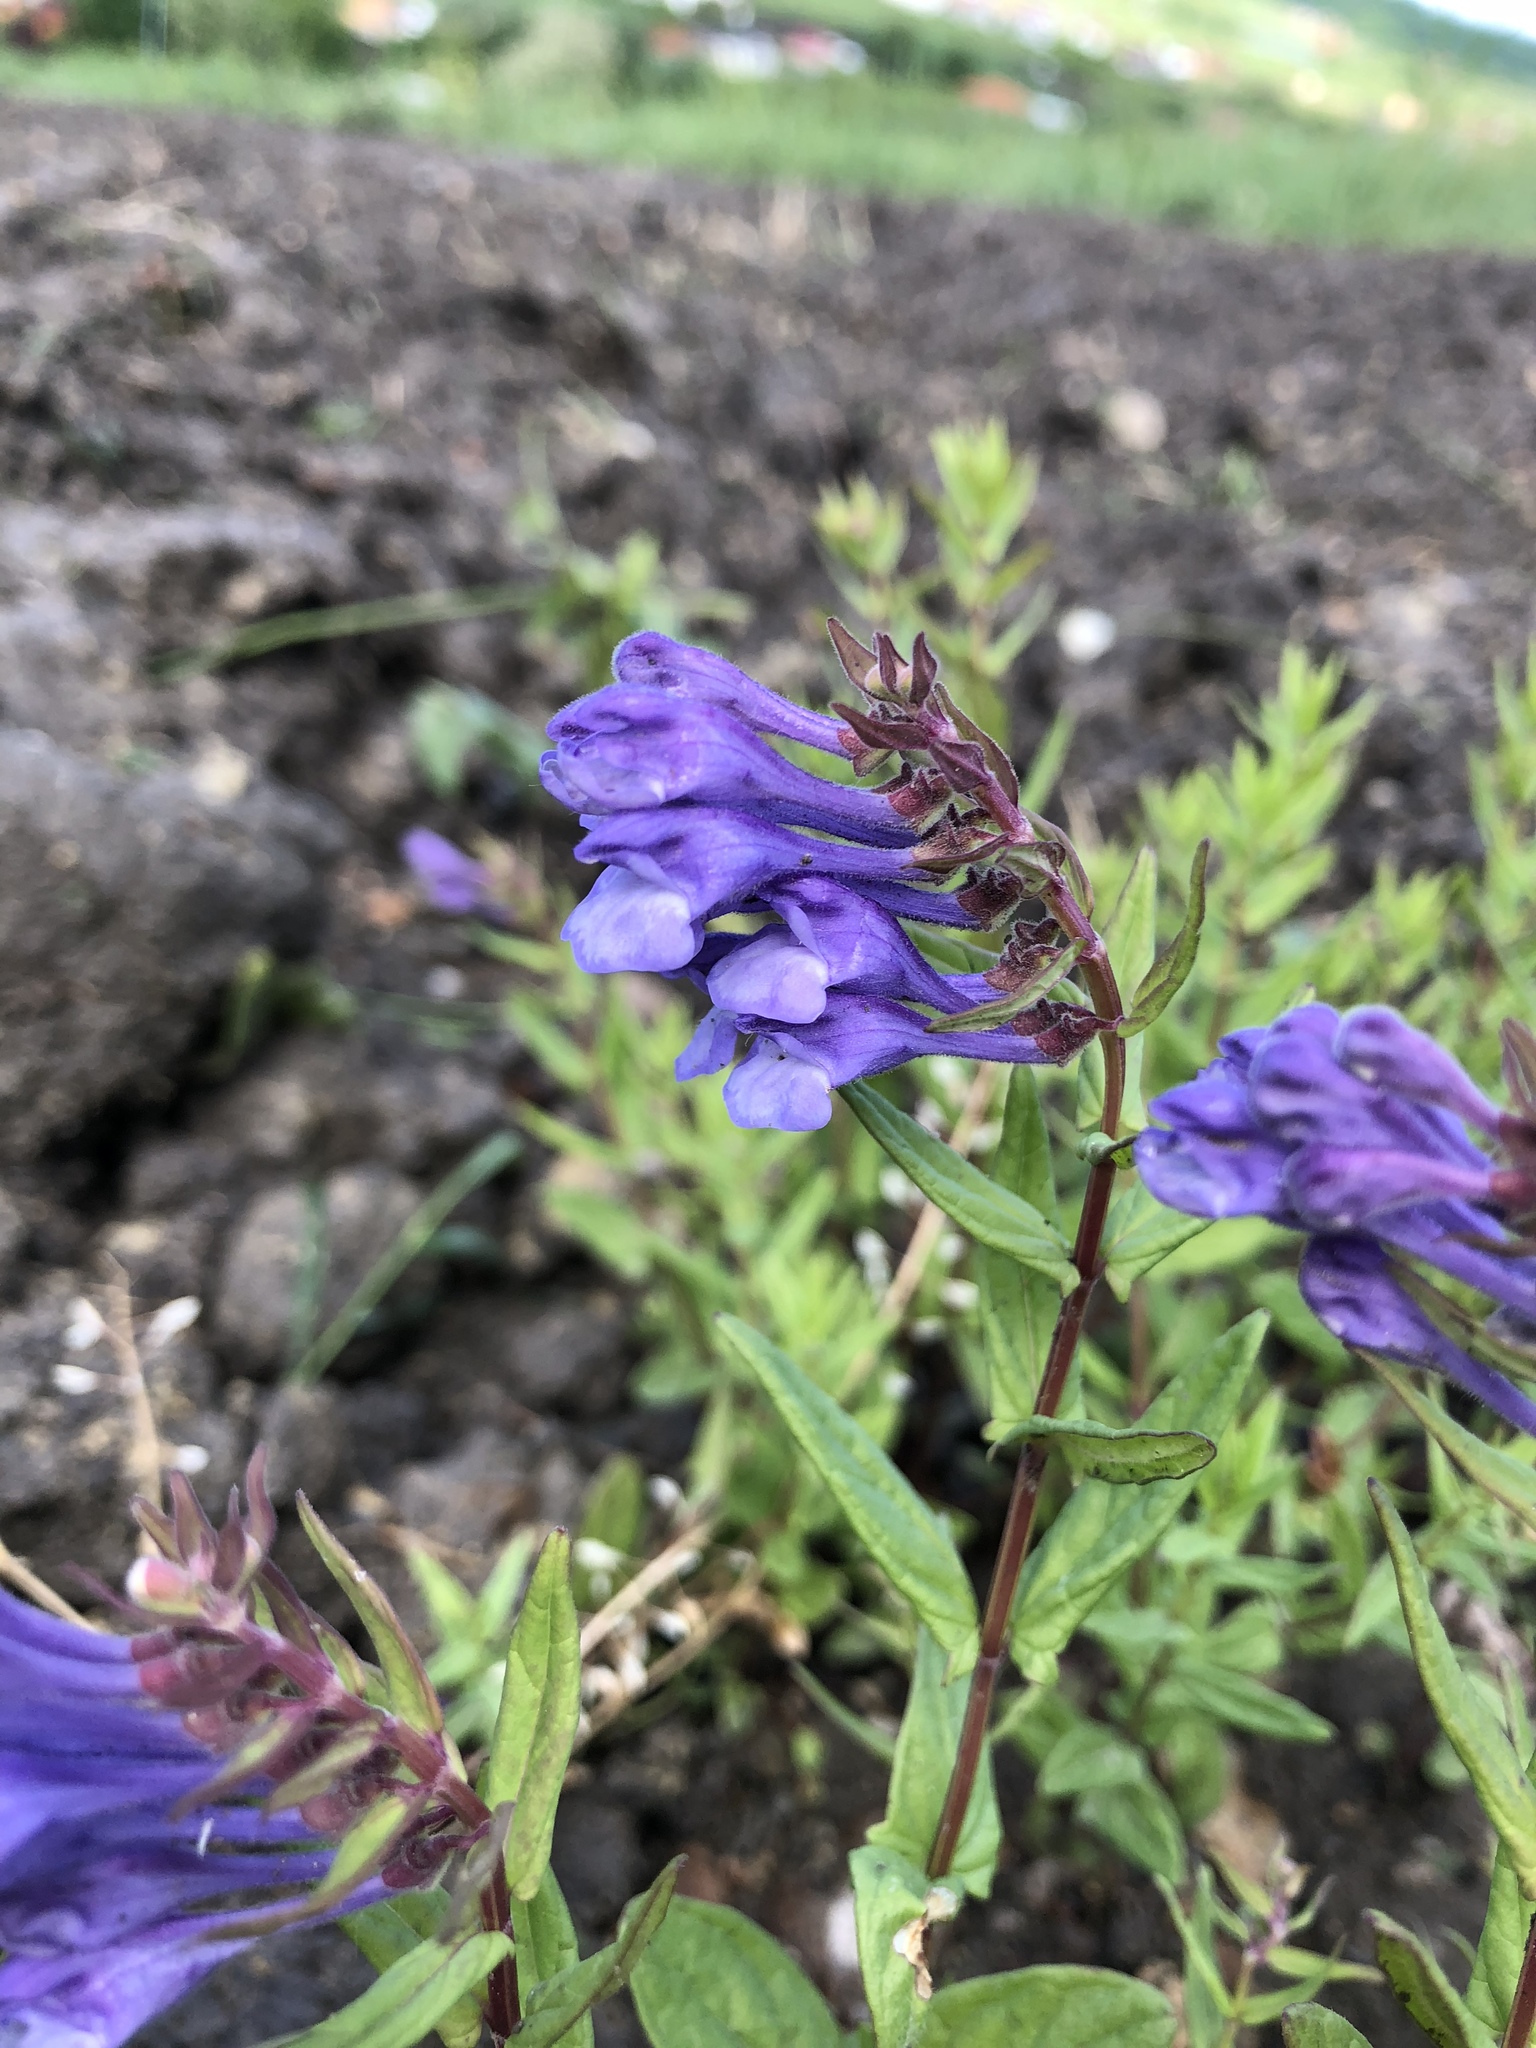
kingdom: Plantae
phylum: Tracheophyta
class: Magnoliopsida
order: Lamiales
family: Lamiaceae
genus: Scutellaria
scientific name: Scutellaria hastifolia
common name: Norfolk skullcap
